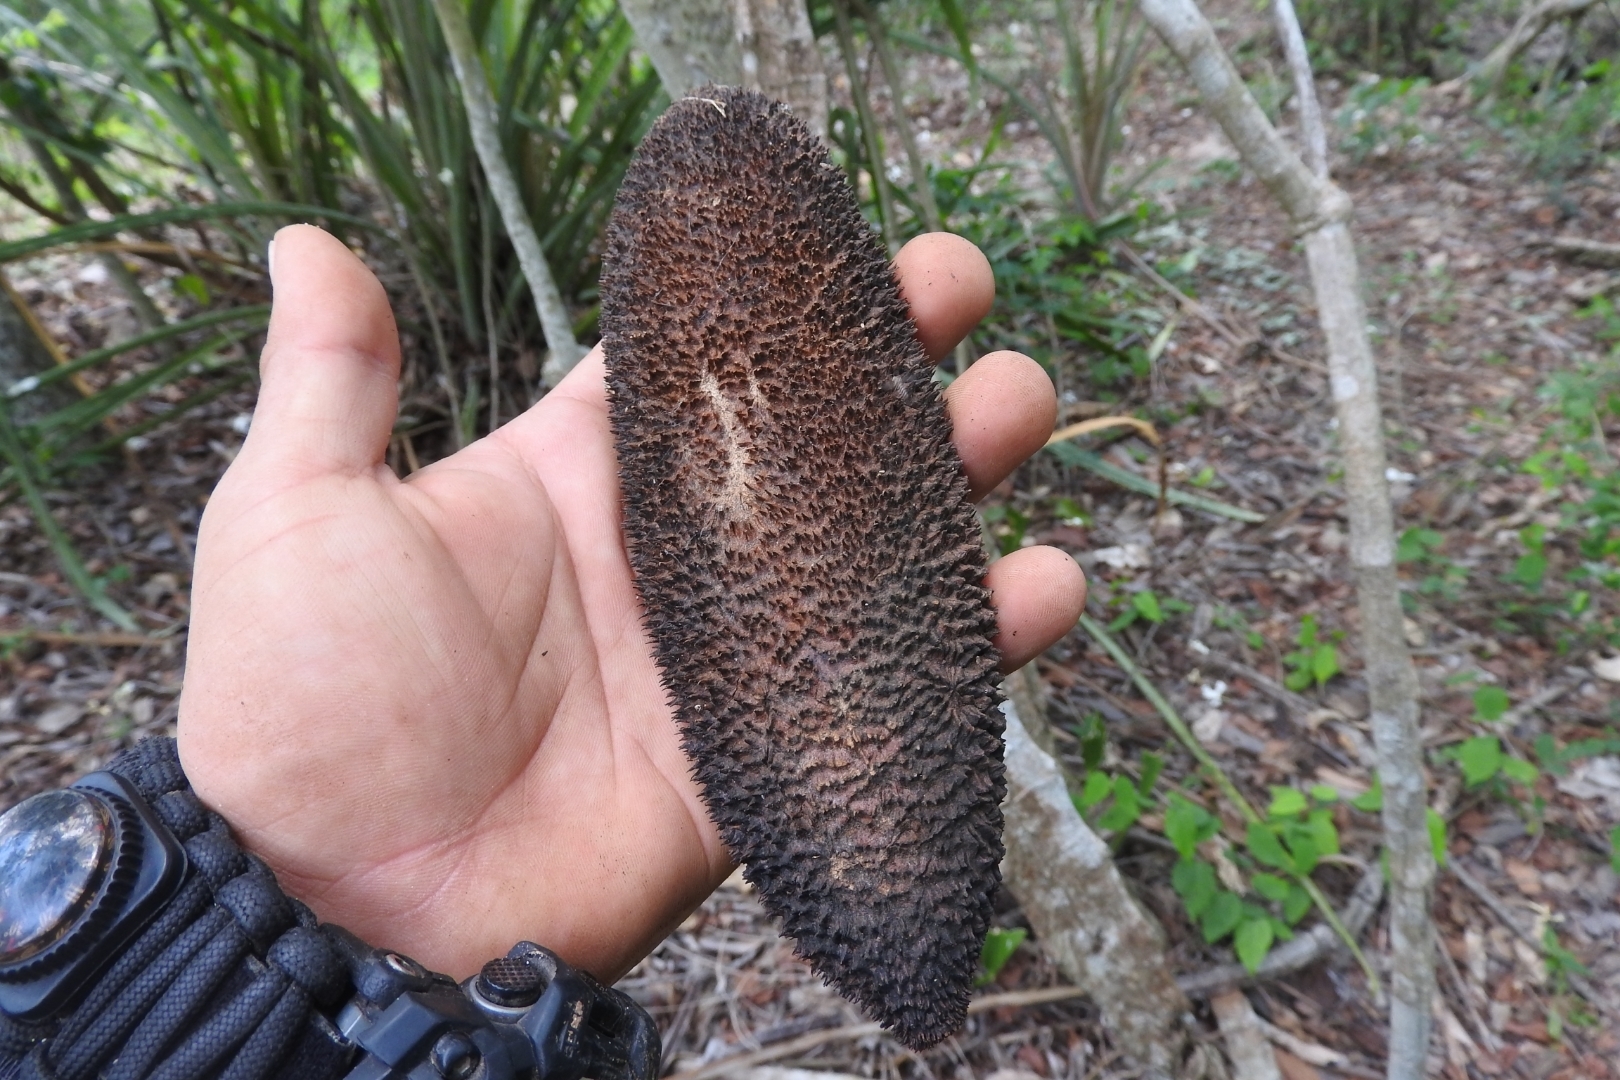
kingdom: Plantae
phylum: Tracheophyta
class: Magnoliopsida
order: Lamiales
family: Bignoniaceae
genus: Amphilophium
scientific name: Amphilophium crucigerum
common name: Monkey comb
